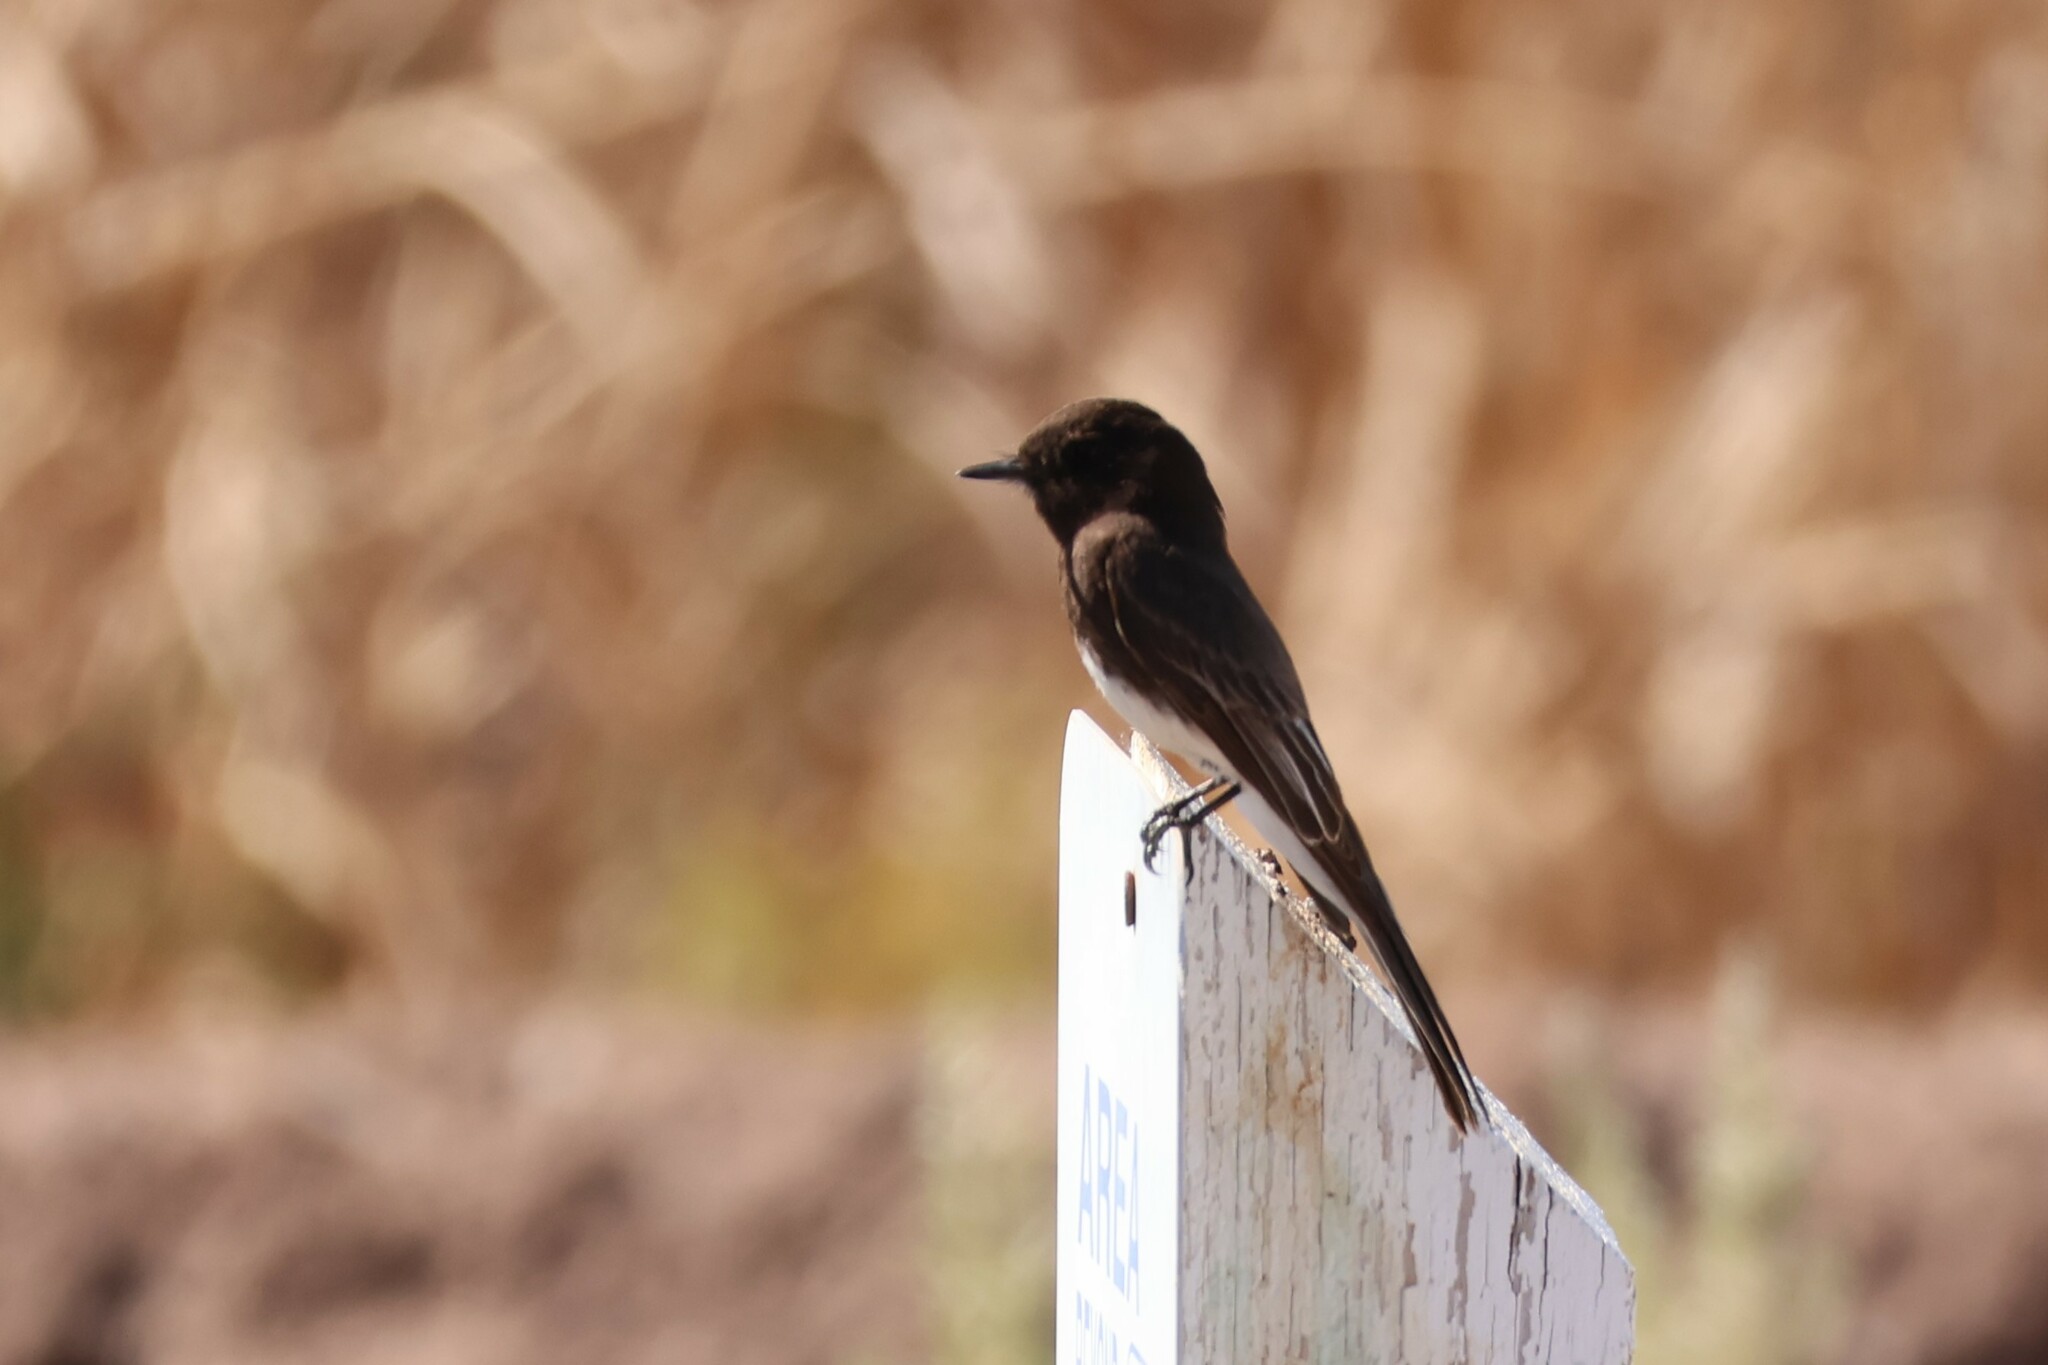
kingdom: Animalia
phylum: Chordata
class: Aves
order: Passeriformes
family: Tyrannidae
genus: Sayornis
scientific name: Sayornis nigricans
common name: Black phoebe
